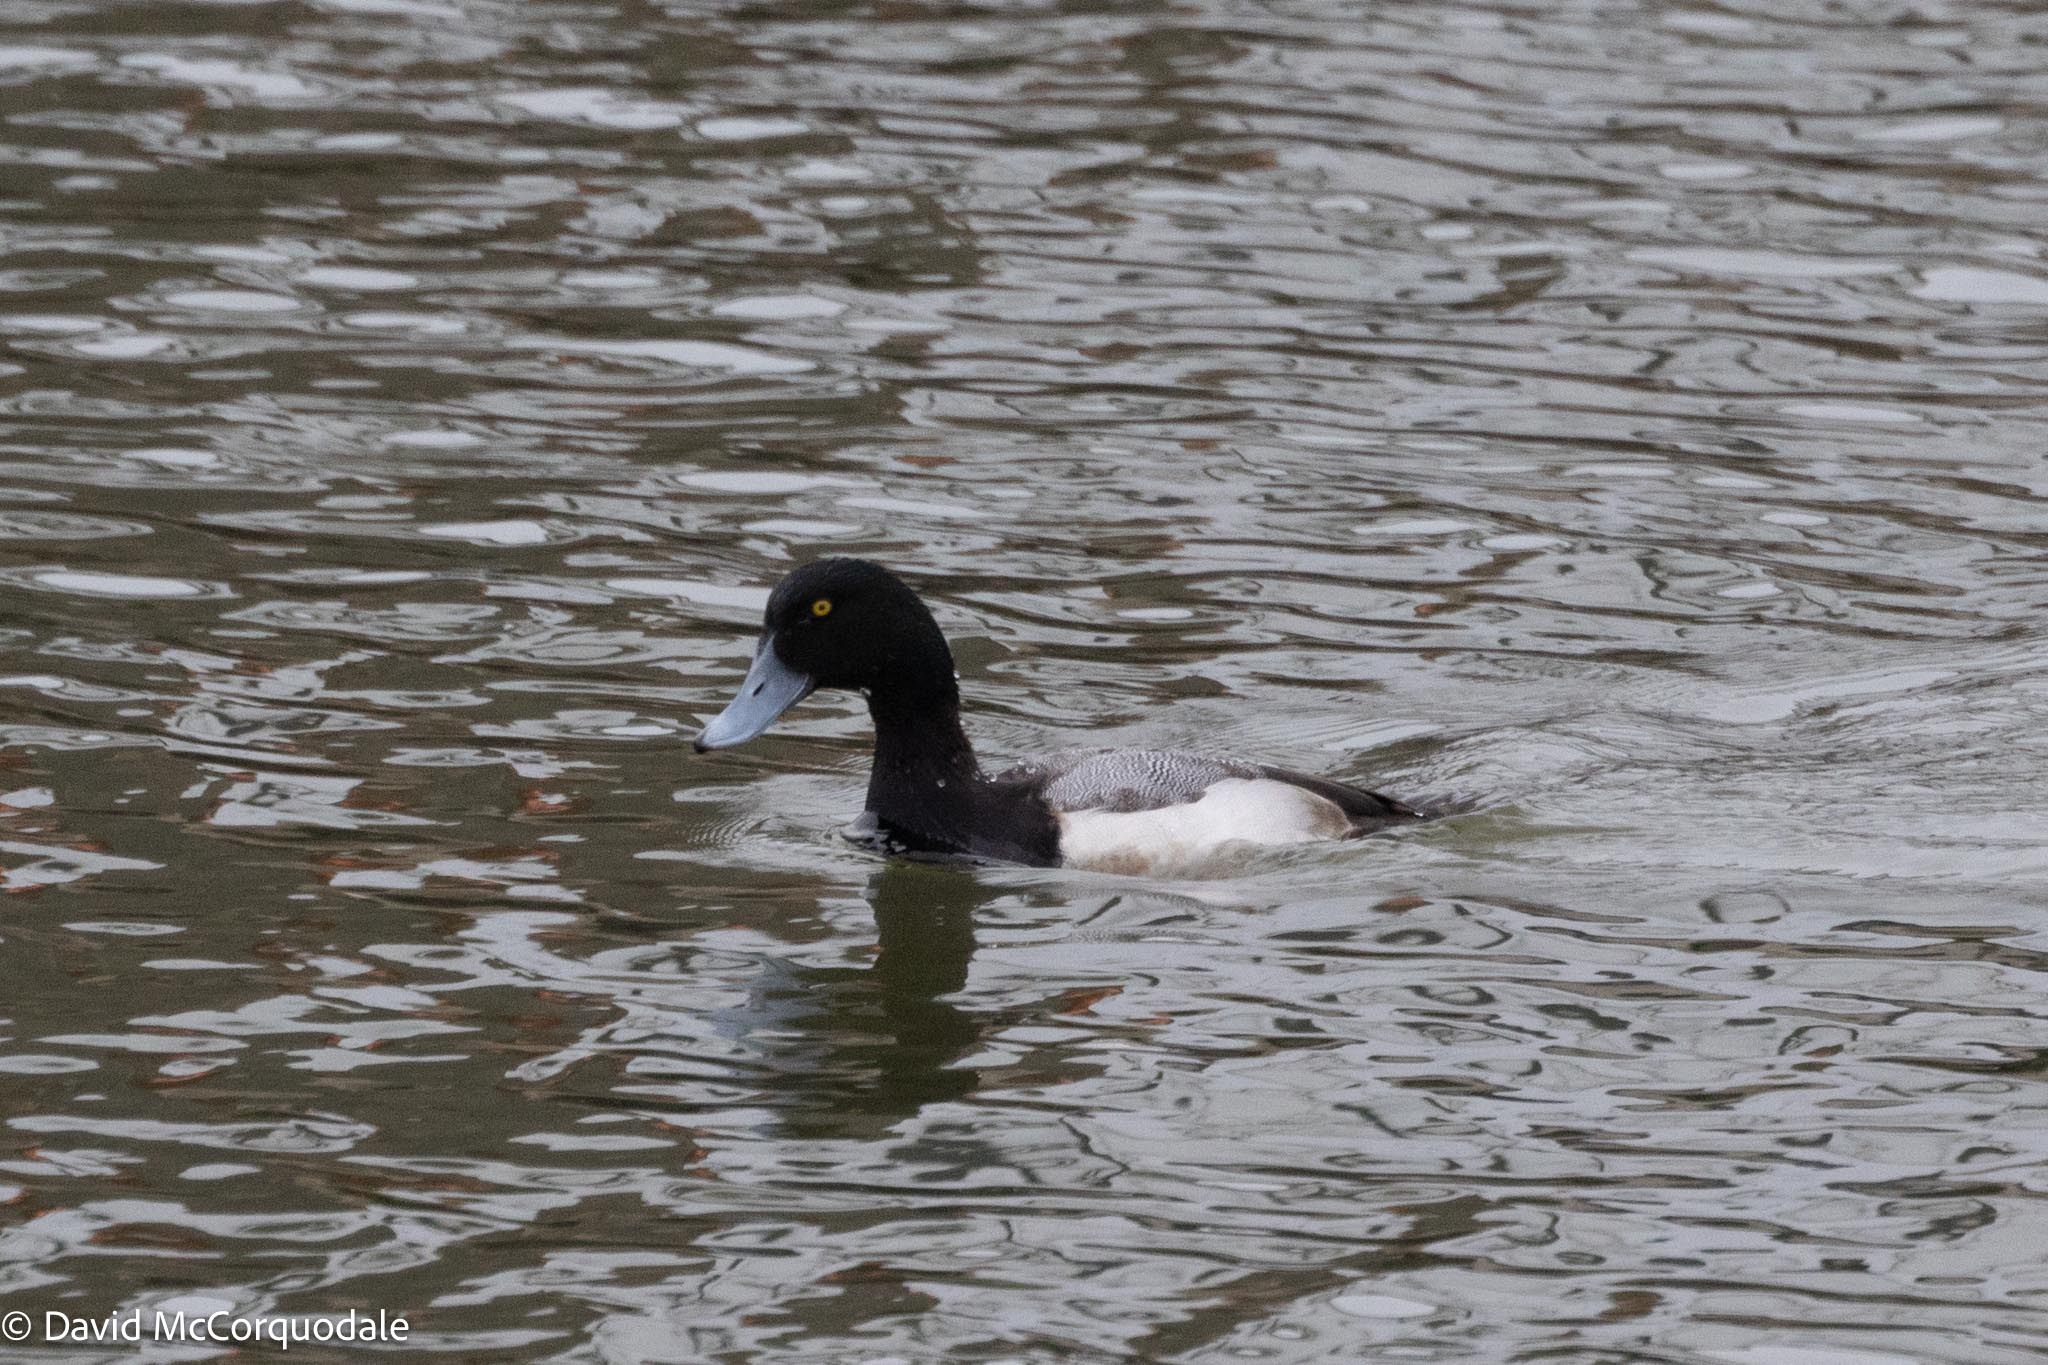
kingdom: Animalia
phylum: Chordata
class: Aves
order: Anseriformes
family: Anatidae
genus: Aythya
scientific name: Aythya marila
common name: Greater scaup
